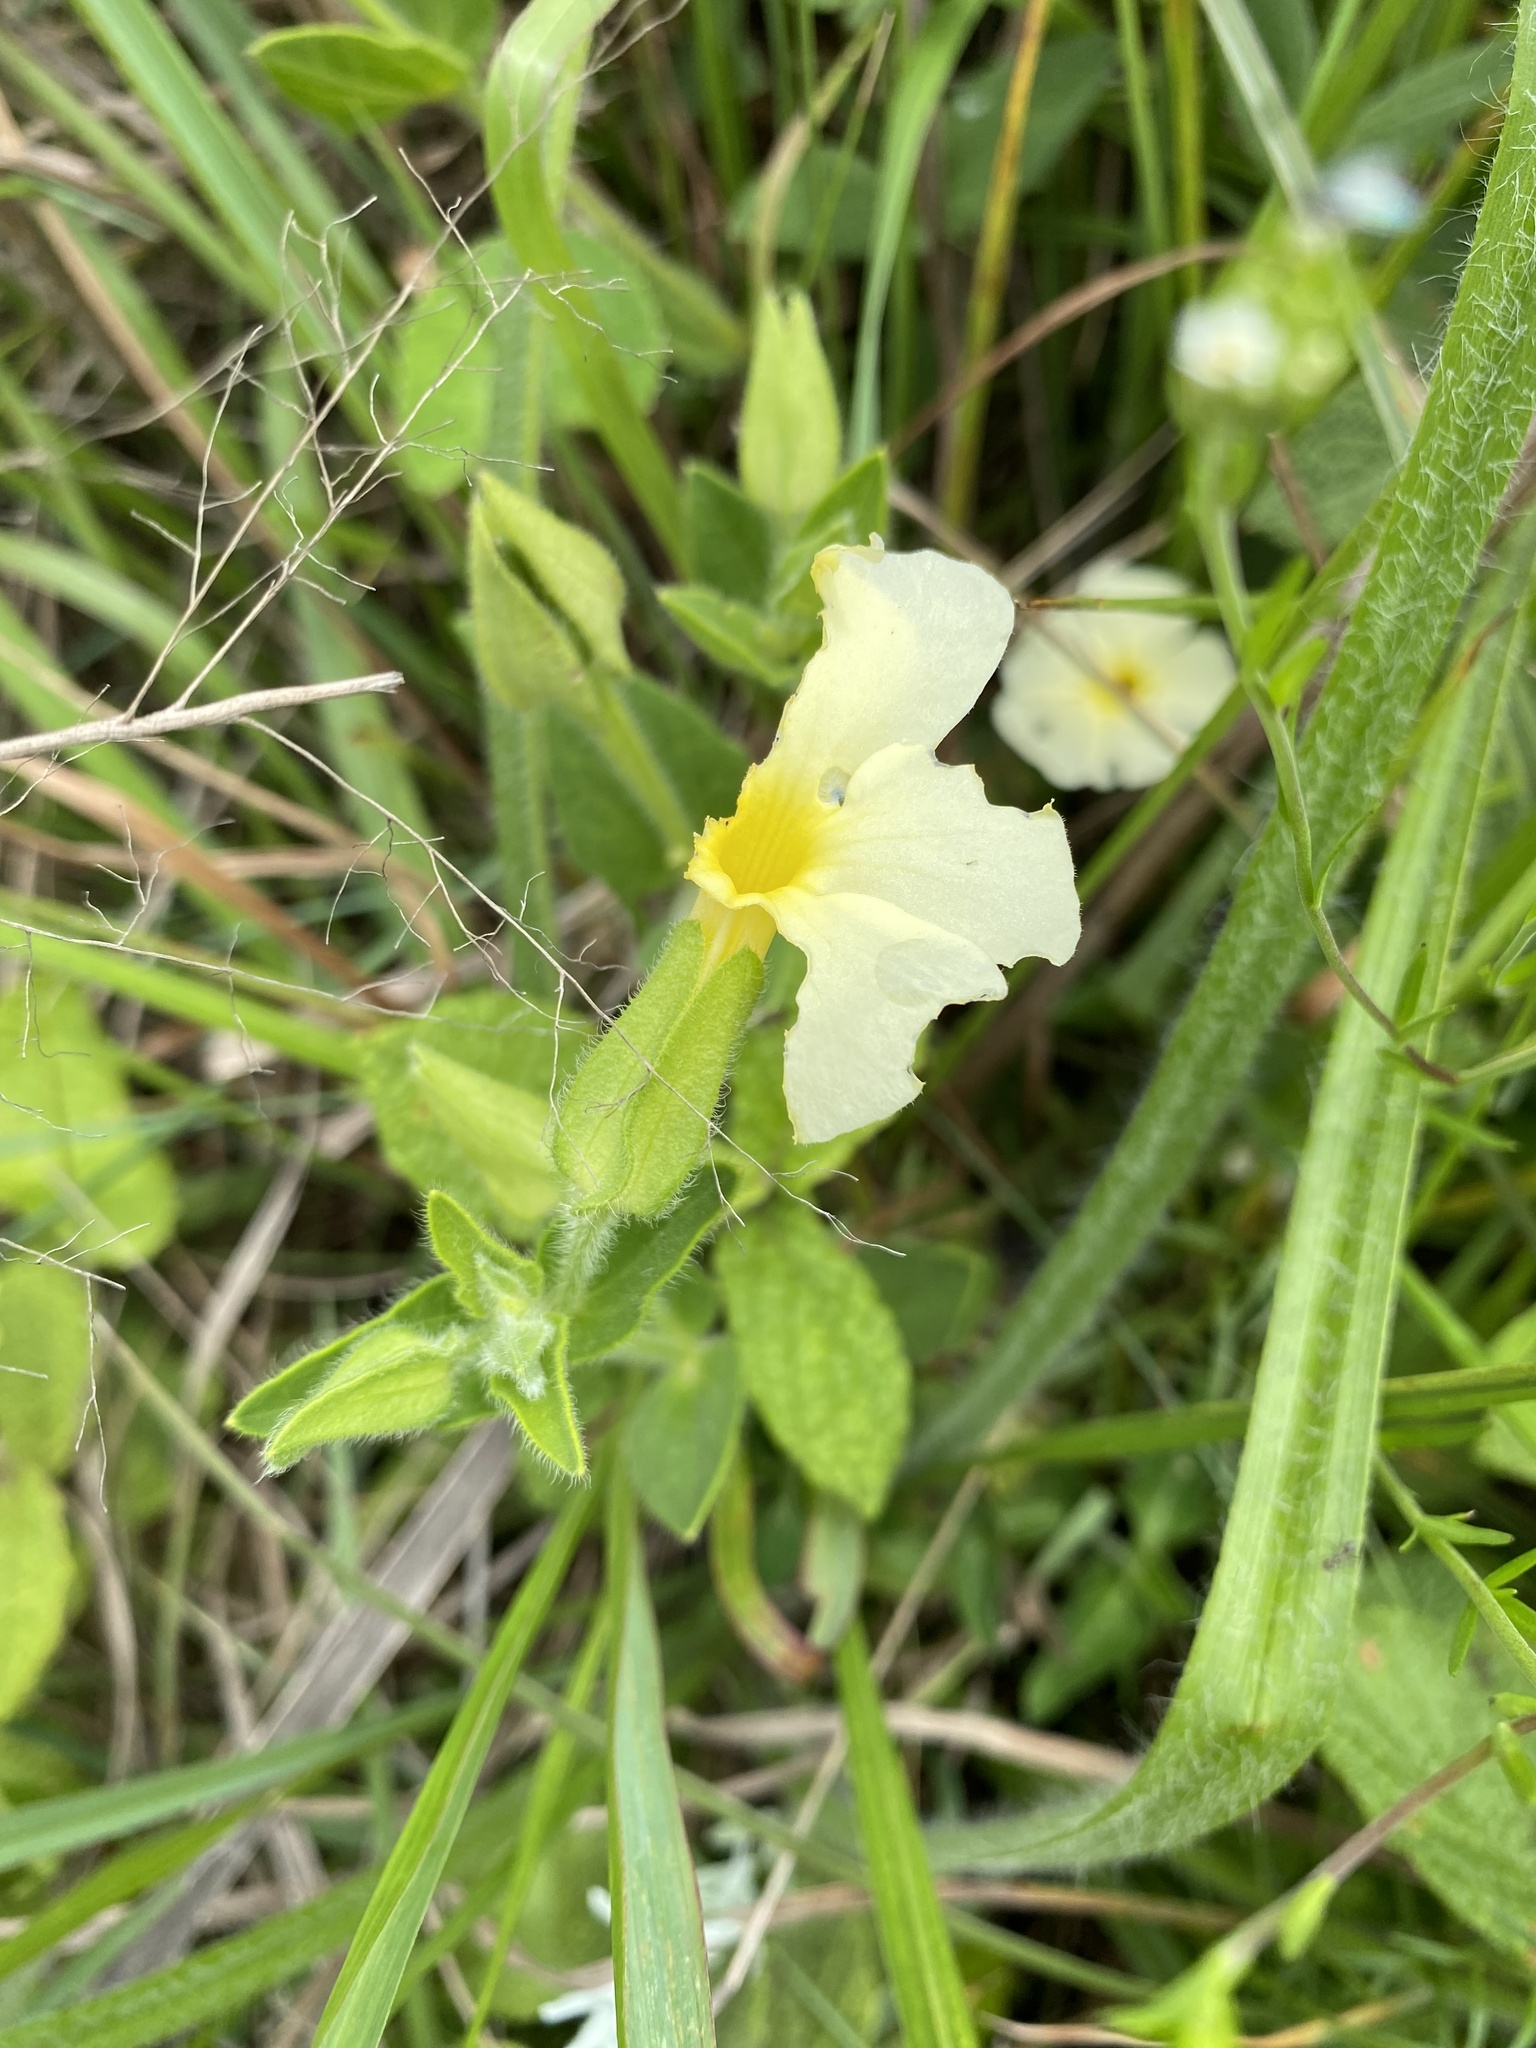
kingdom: Plantae
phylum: Tracheophyta
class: Magnoliopsida
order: Lamiales
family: Acanthaceae
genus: Thunbergia
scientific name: Thunbergia atriplicifolia
